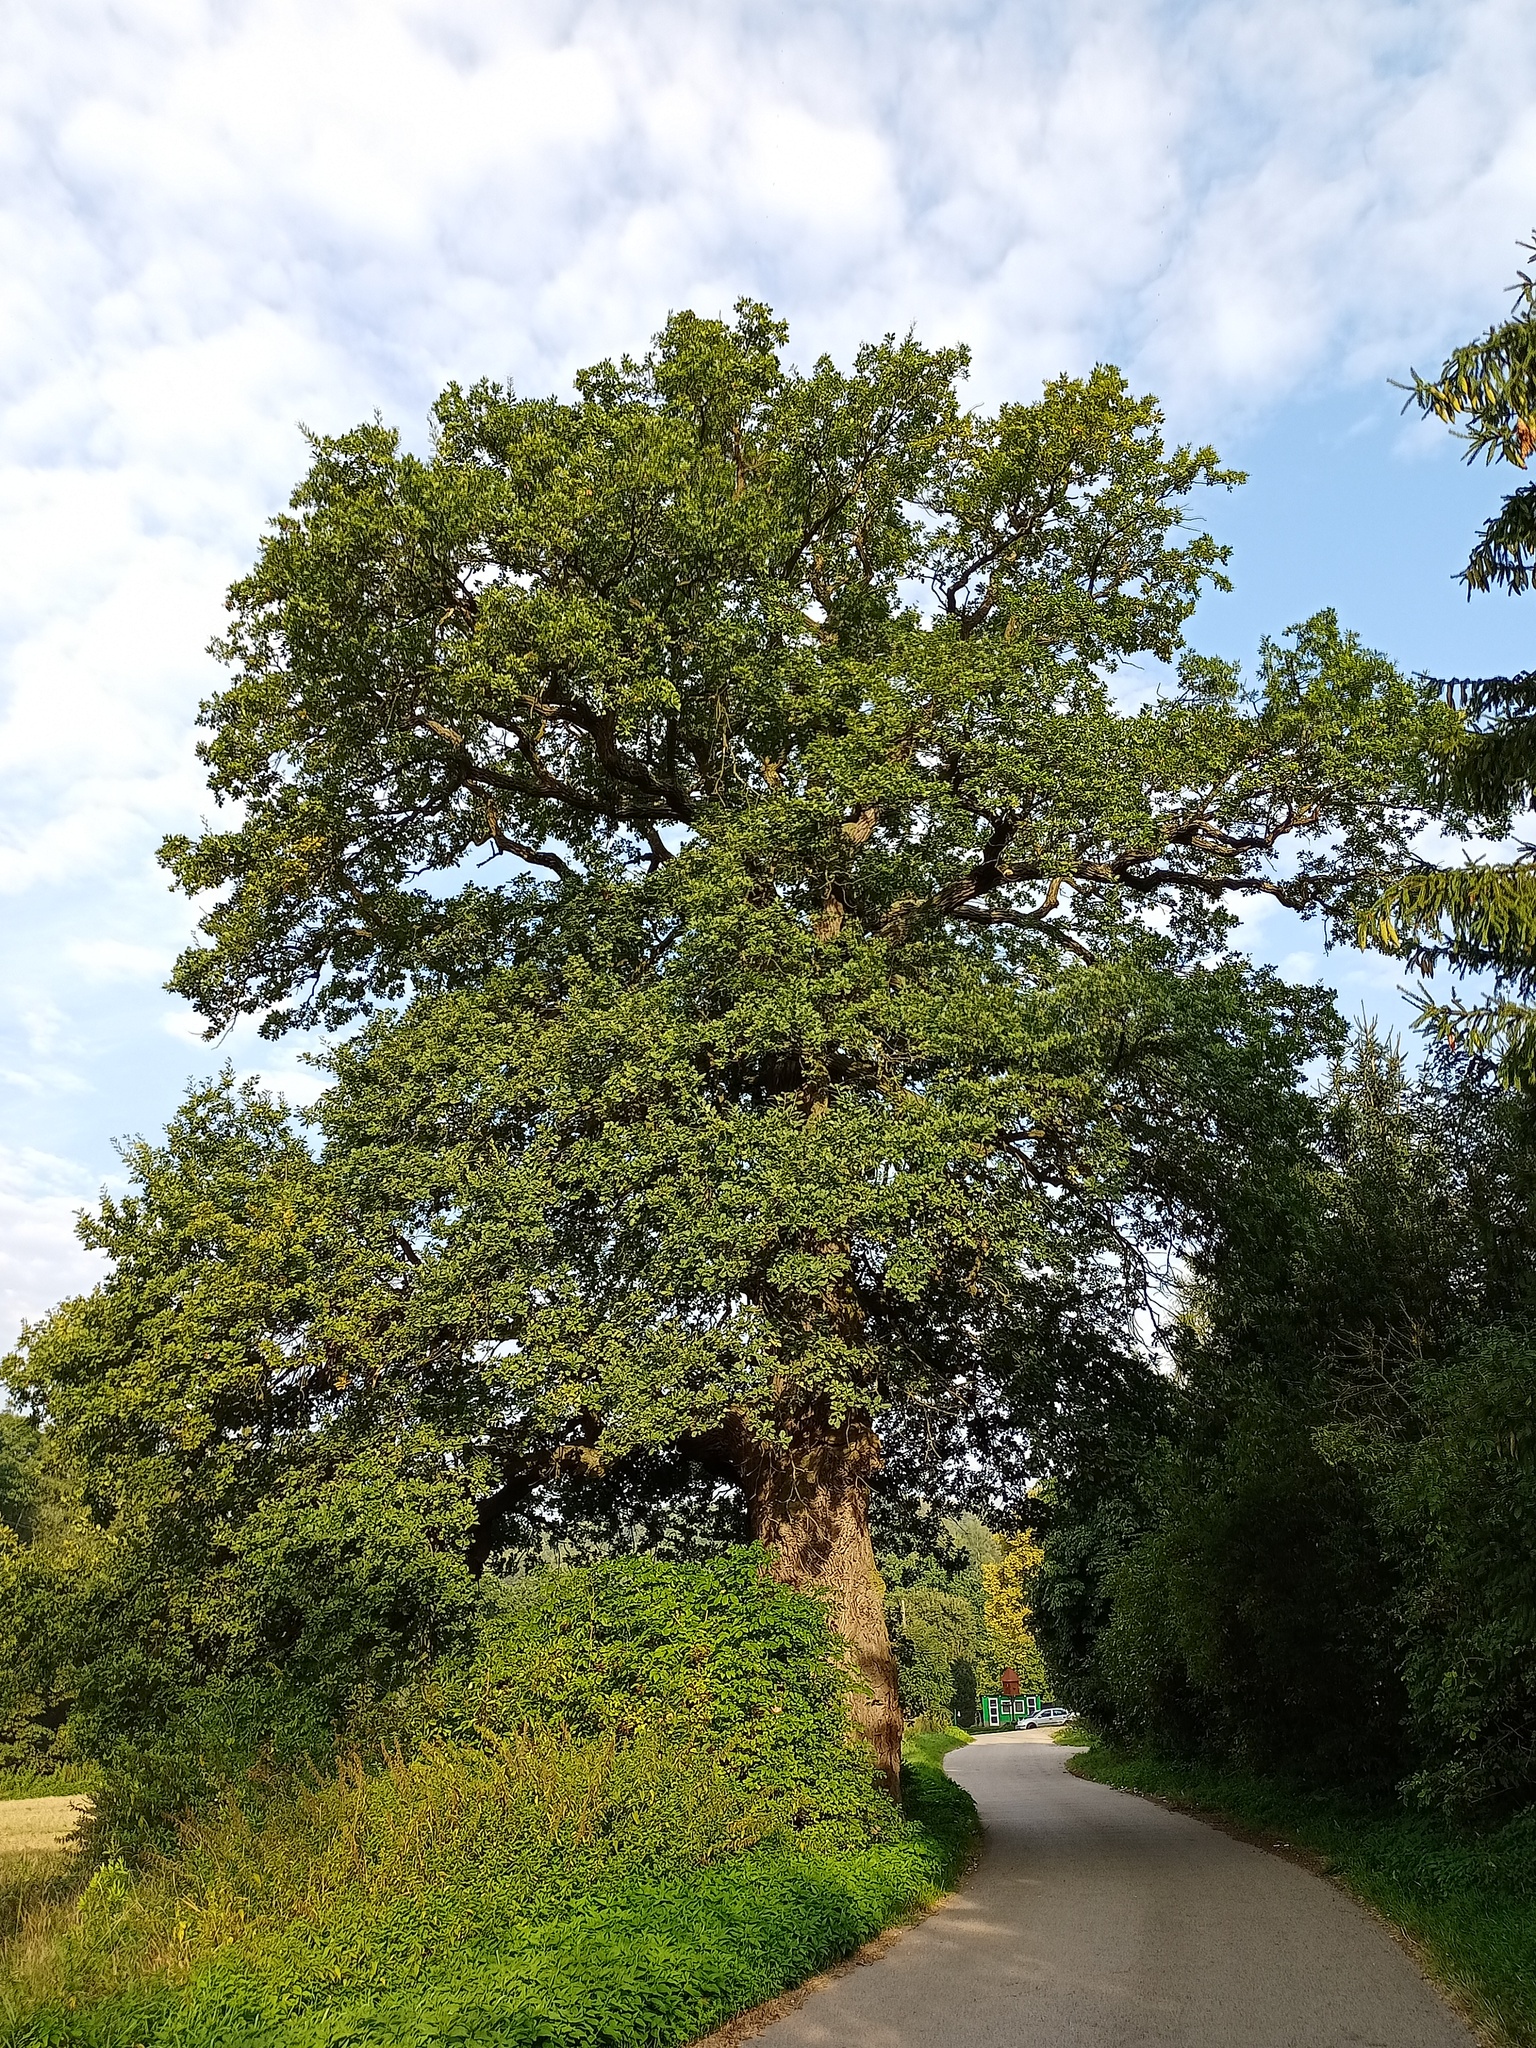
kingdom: Plantae
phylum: Tracheophyta
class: Magnoliopsida
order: Fagales
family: Fagaceae
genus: Quercus
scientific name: Quercus robur
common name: Pedunculate oak
